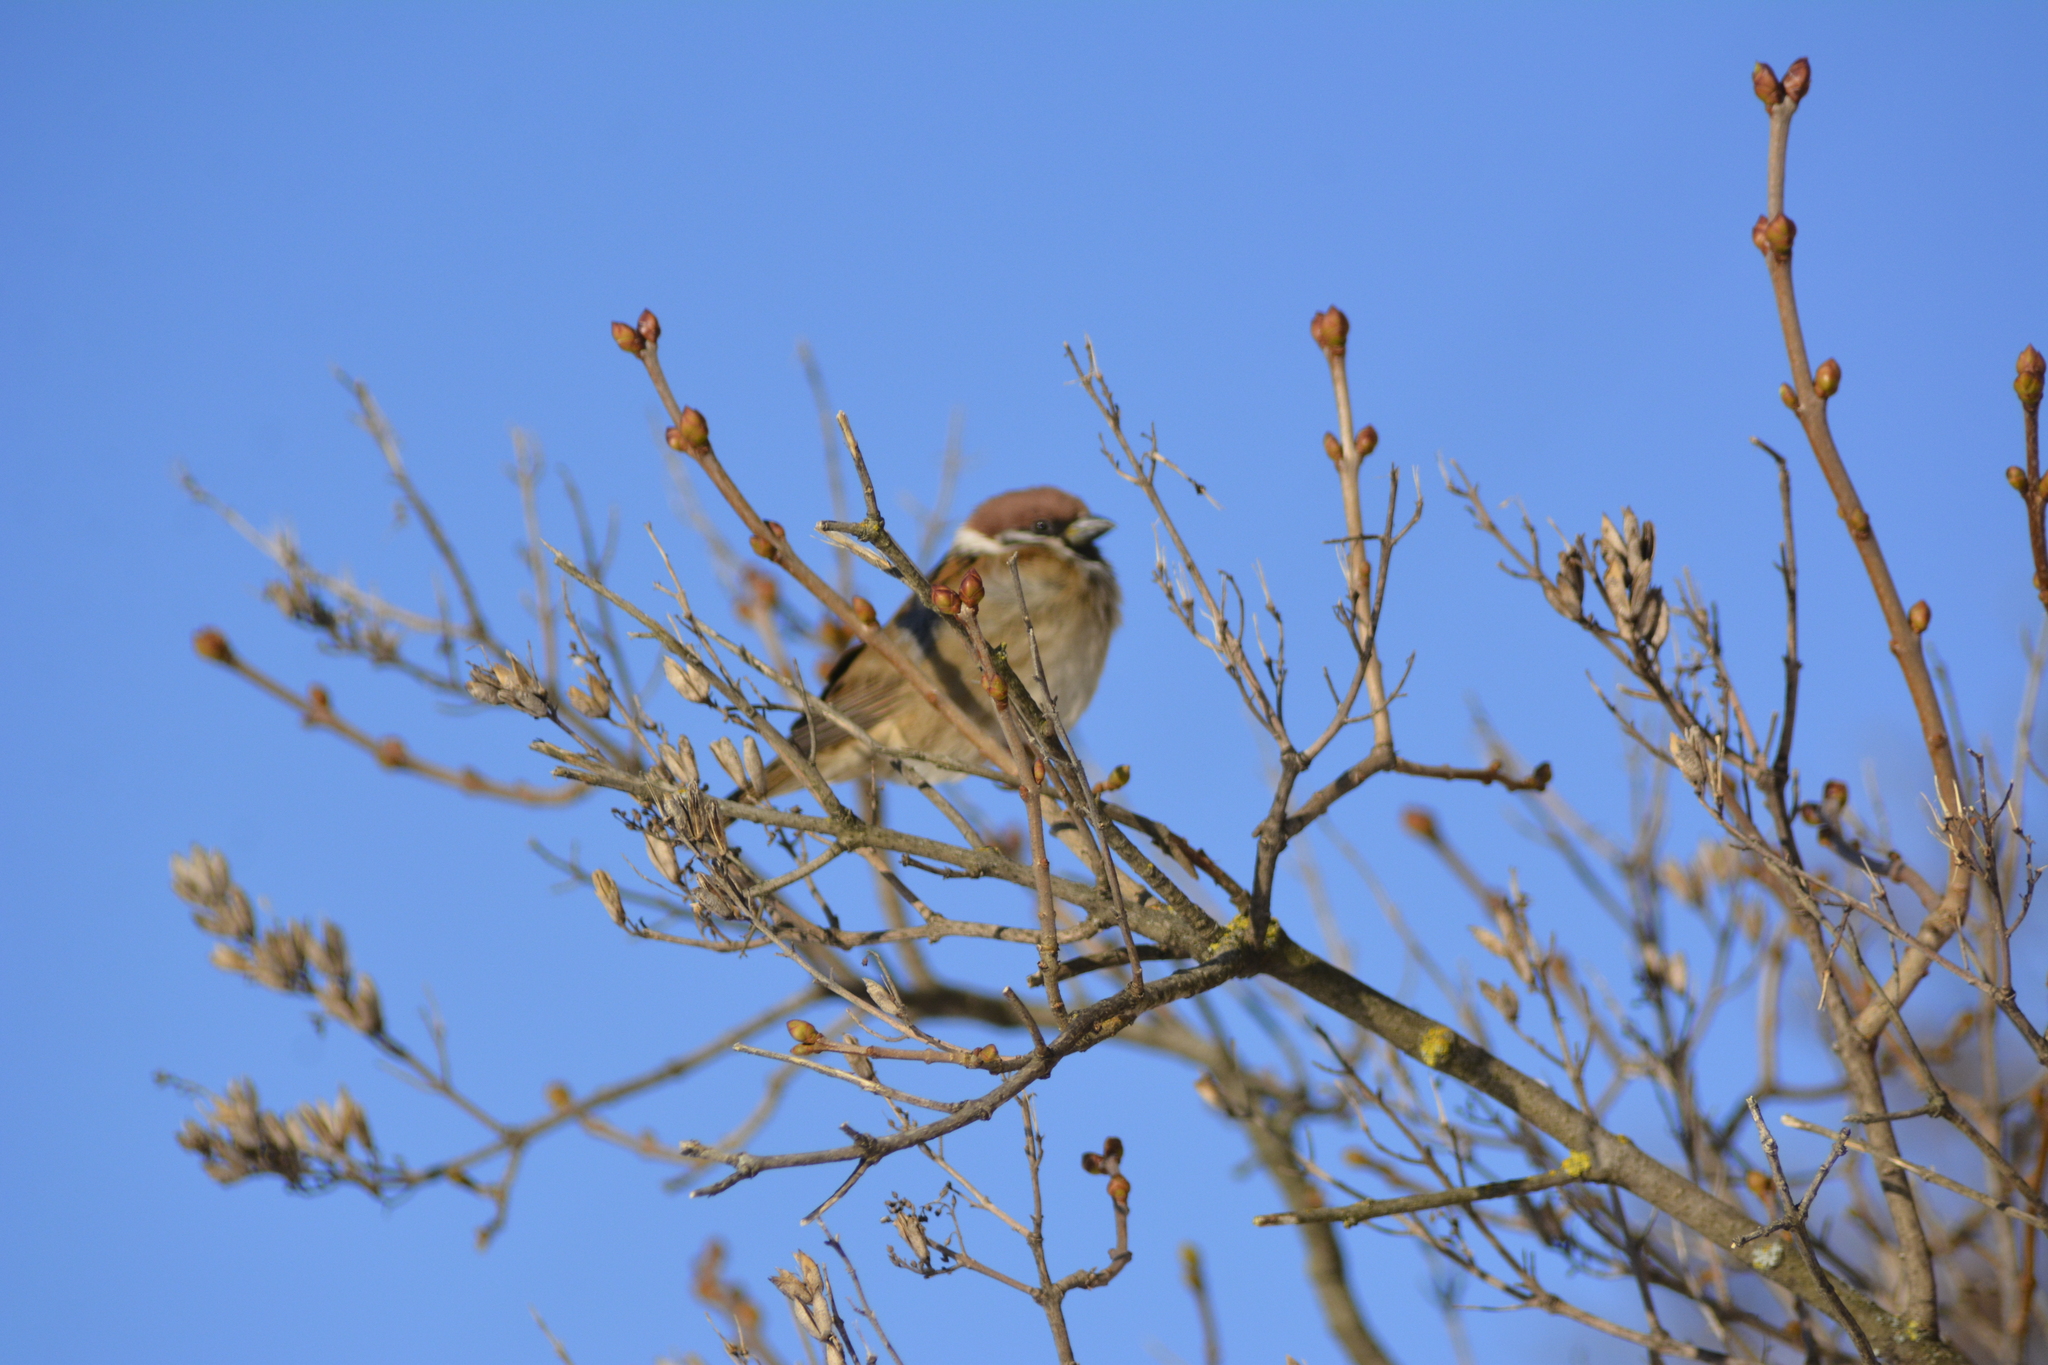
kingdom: Animalia
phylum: Chordata
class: Aves
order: Passeriformes
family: Passeridae
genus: Passer
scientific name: Passer montanus
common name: Eurasian tree sparrow
